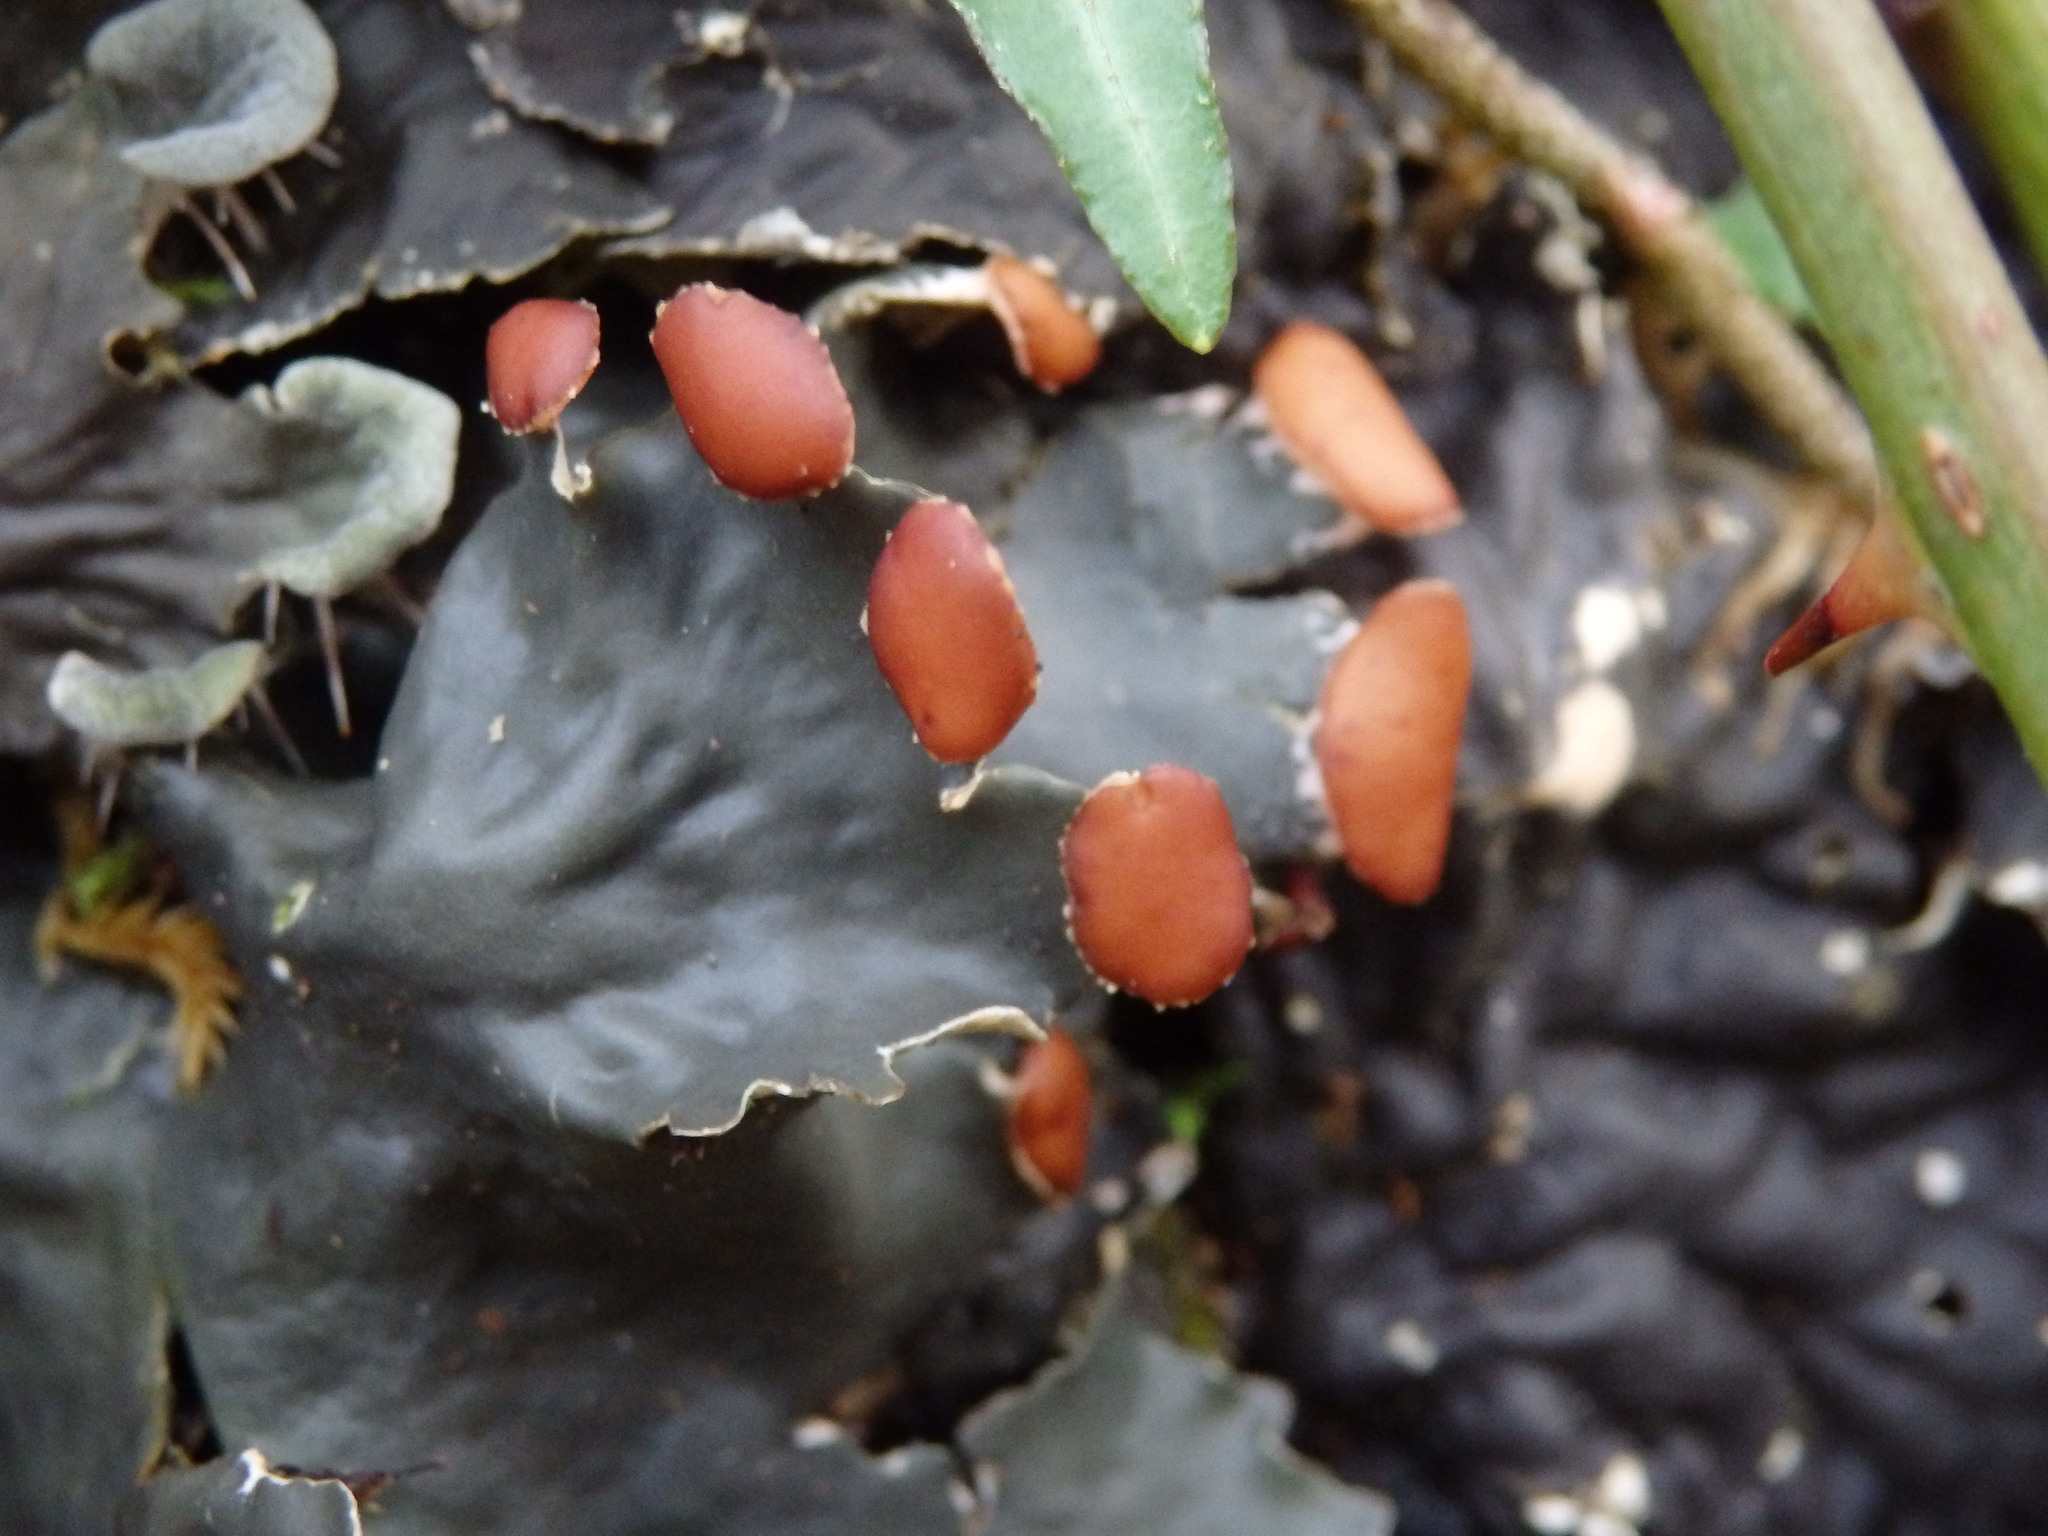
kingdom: Fungi
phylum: Ascomycota
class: Lecanoromycetes
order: Peltigerales
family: Peltigeraceae
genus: Peltigera
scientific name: Peltigera membranacea
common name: Membranous pelt lichen
